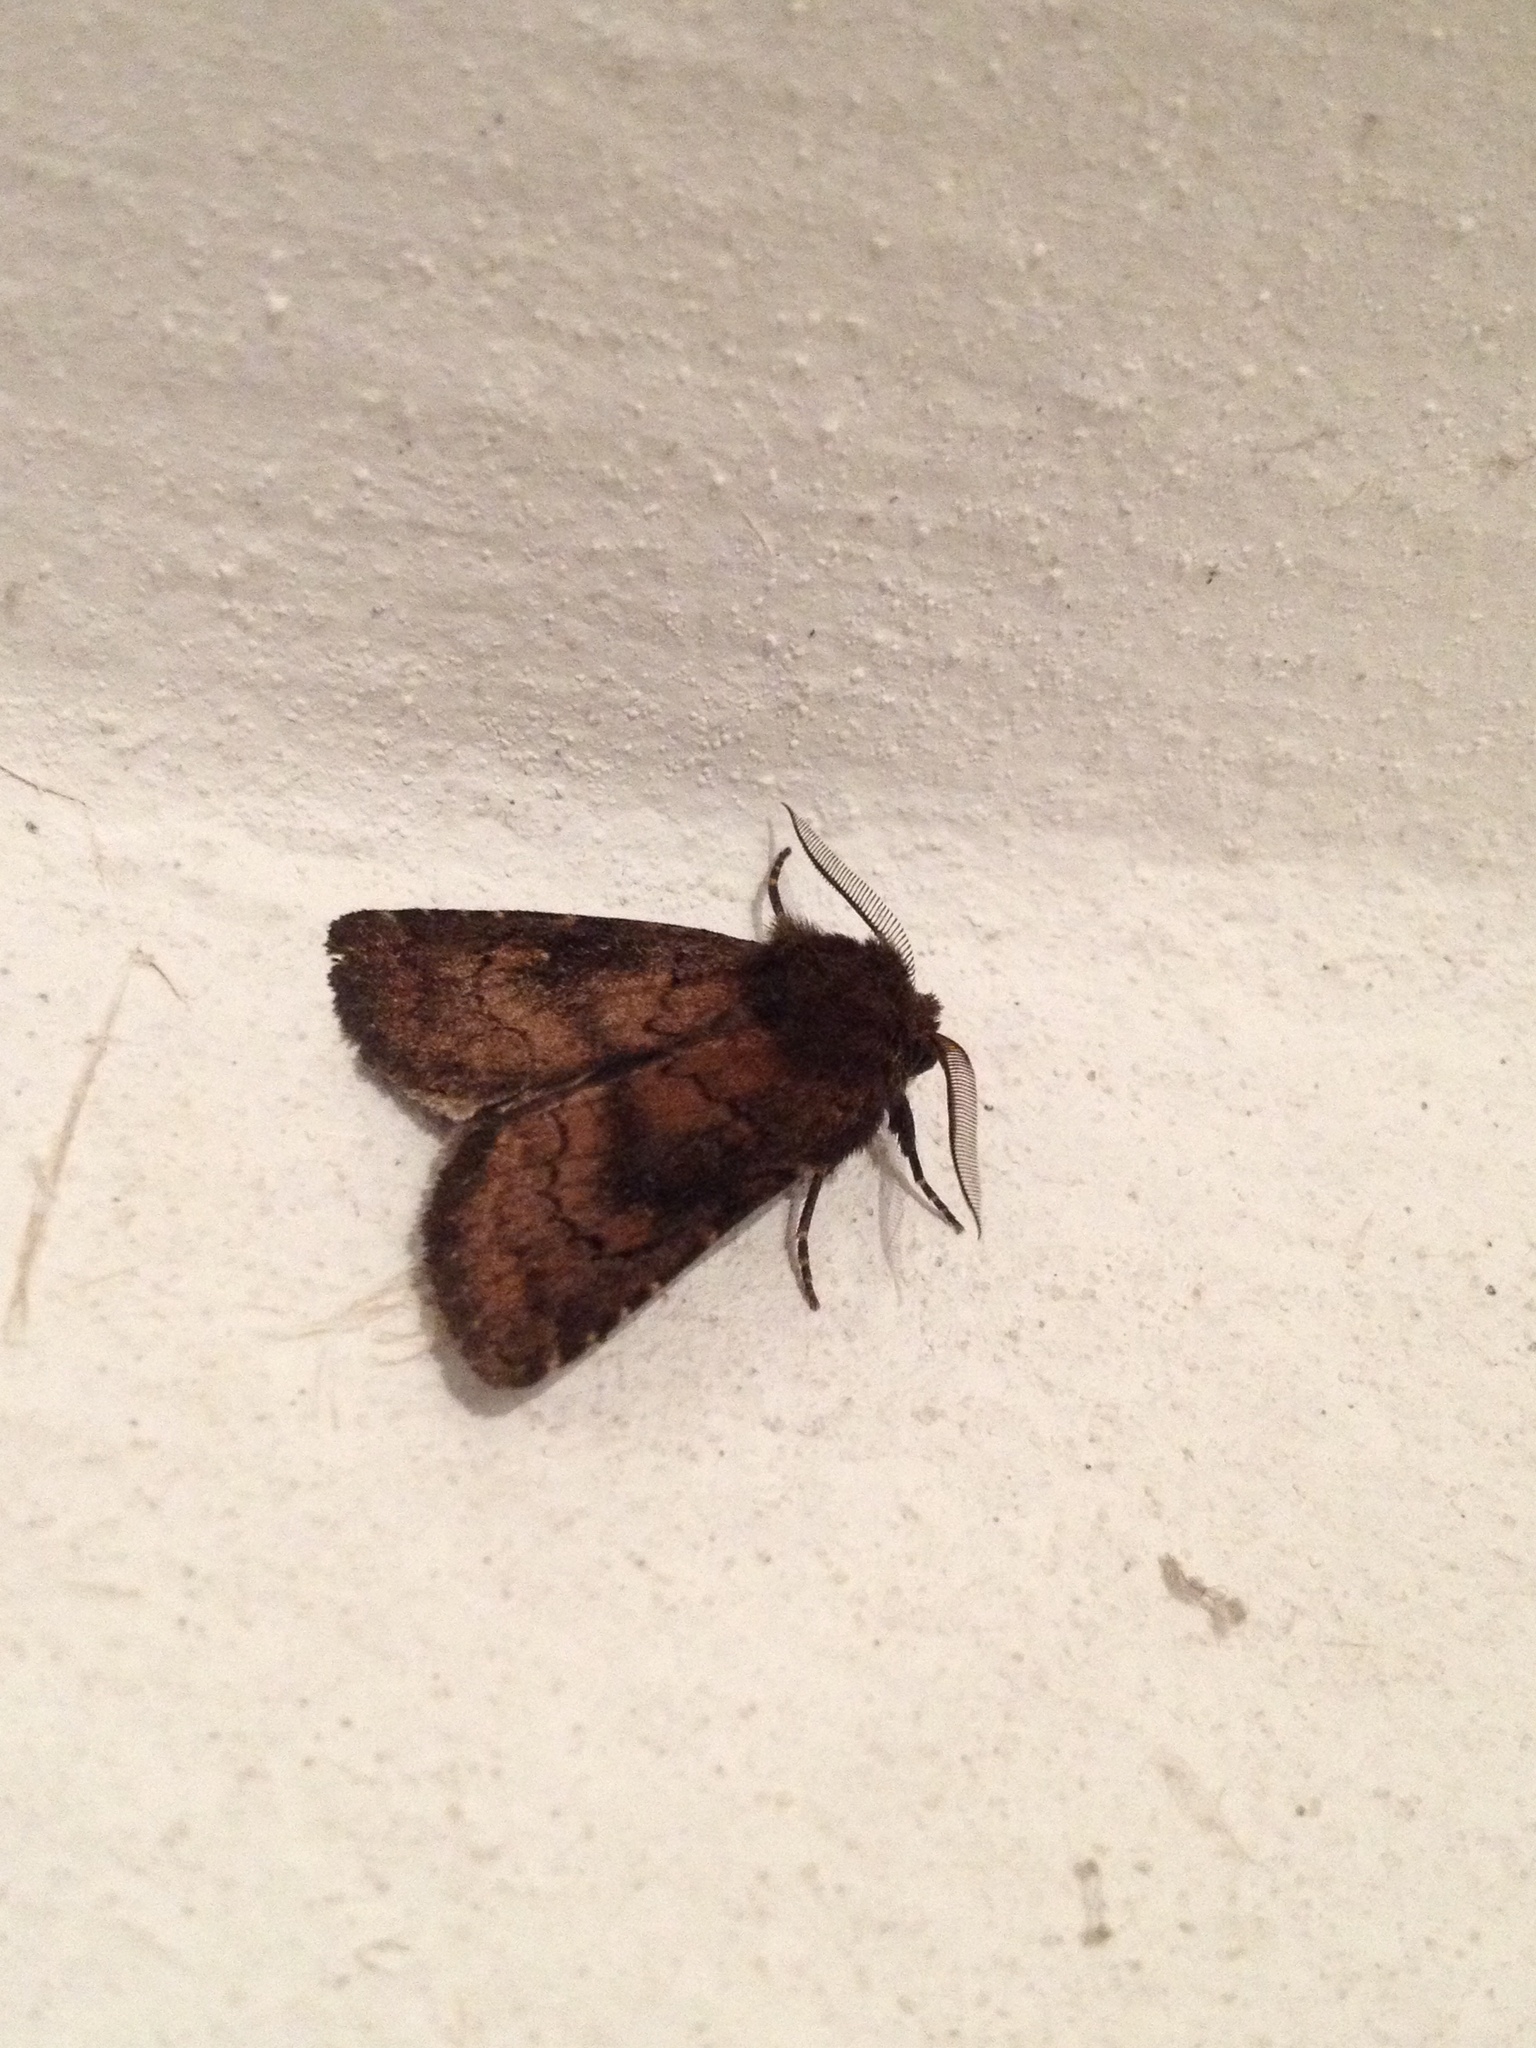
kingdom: Animalia
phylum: Arthropoda
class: Insecta
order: Lepidoptera
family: Noctuidae
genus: Charanyca
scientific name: Charanyca ferruginea
